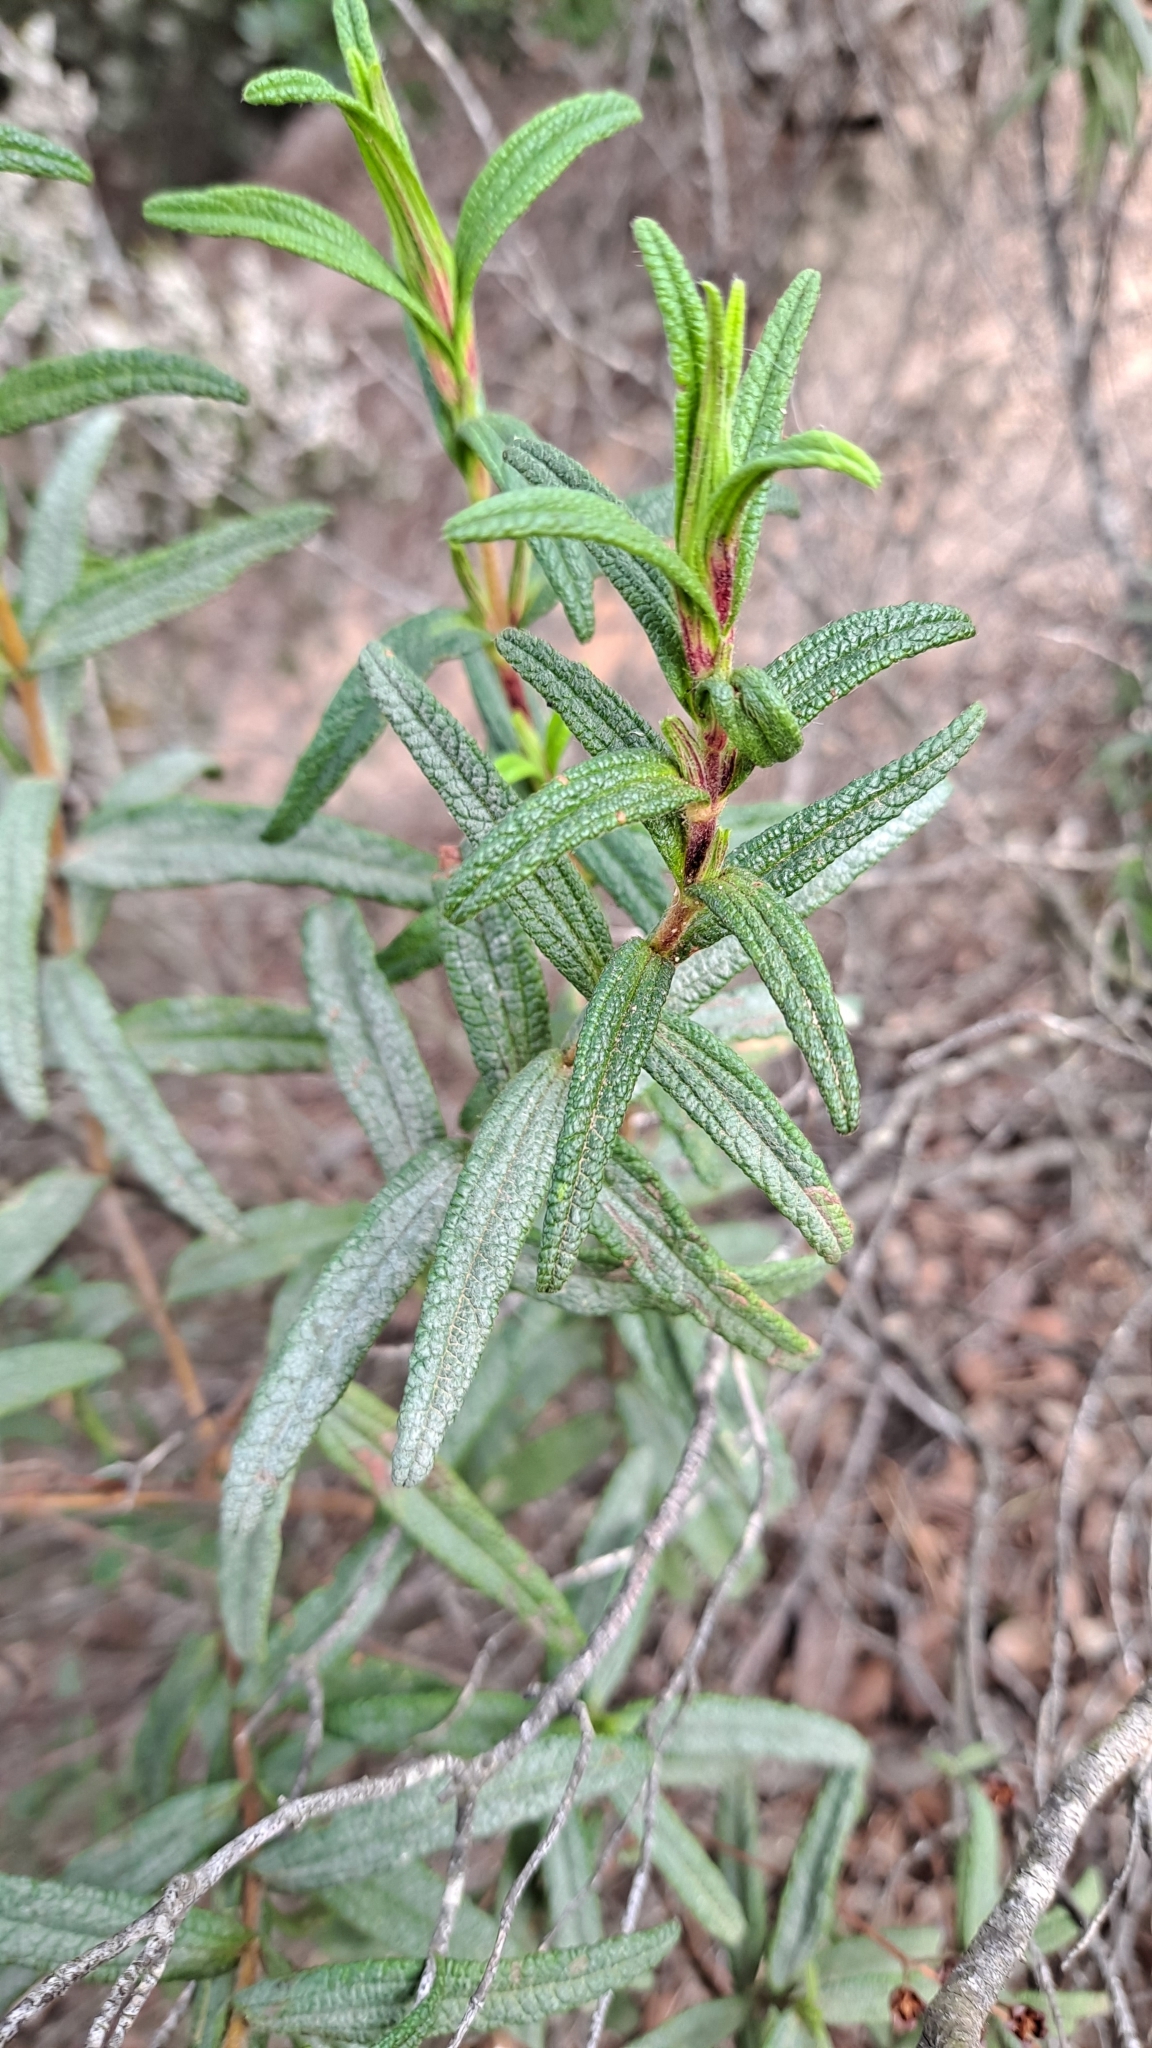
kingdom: Plantae
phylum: Tracheophyta
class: Magnoliopsida
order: Malvales
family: Cistaceae
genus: Cistus
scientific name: Cistus monspeliensis
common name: Montpelier cistus
